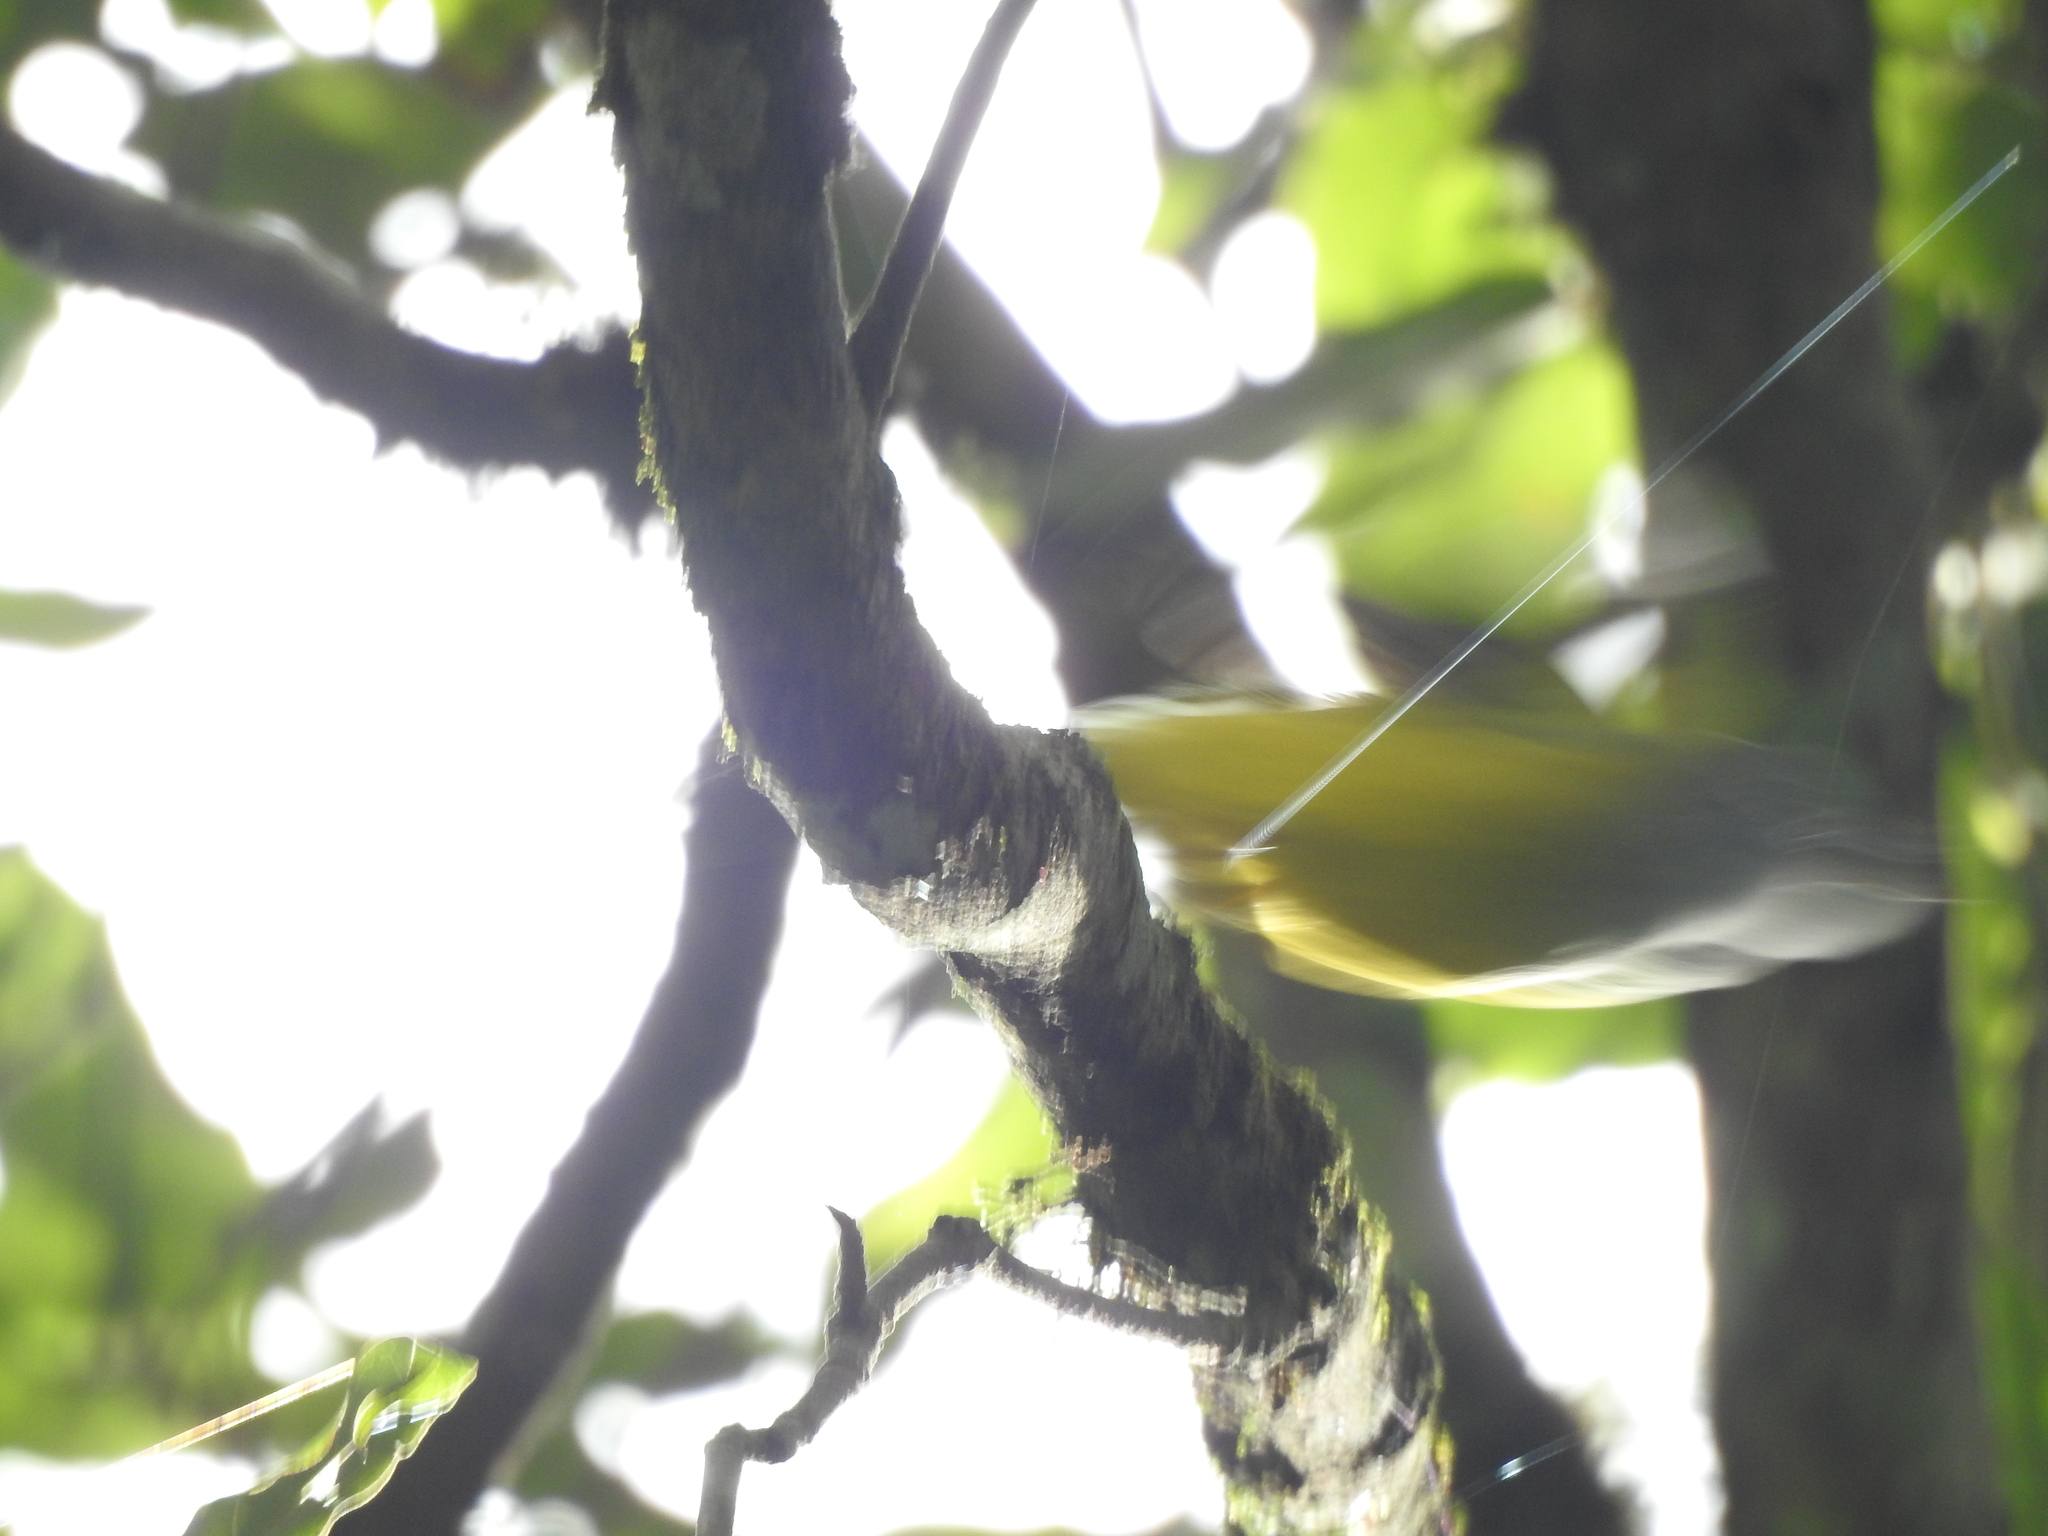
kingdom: Animalia
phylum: Chordata
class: Aves
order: Passeriformes
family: Stenostiridae
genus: Culicicapa
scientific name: Culicicapa ceylonensis
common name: Grey-headed canary-flycatcher
